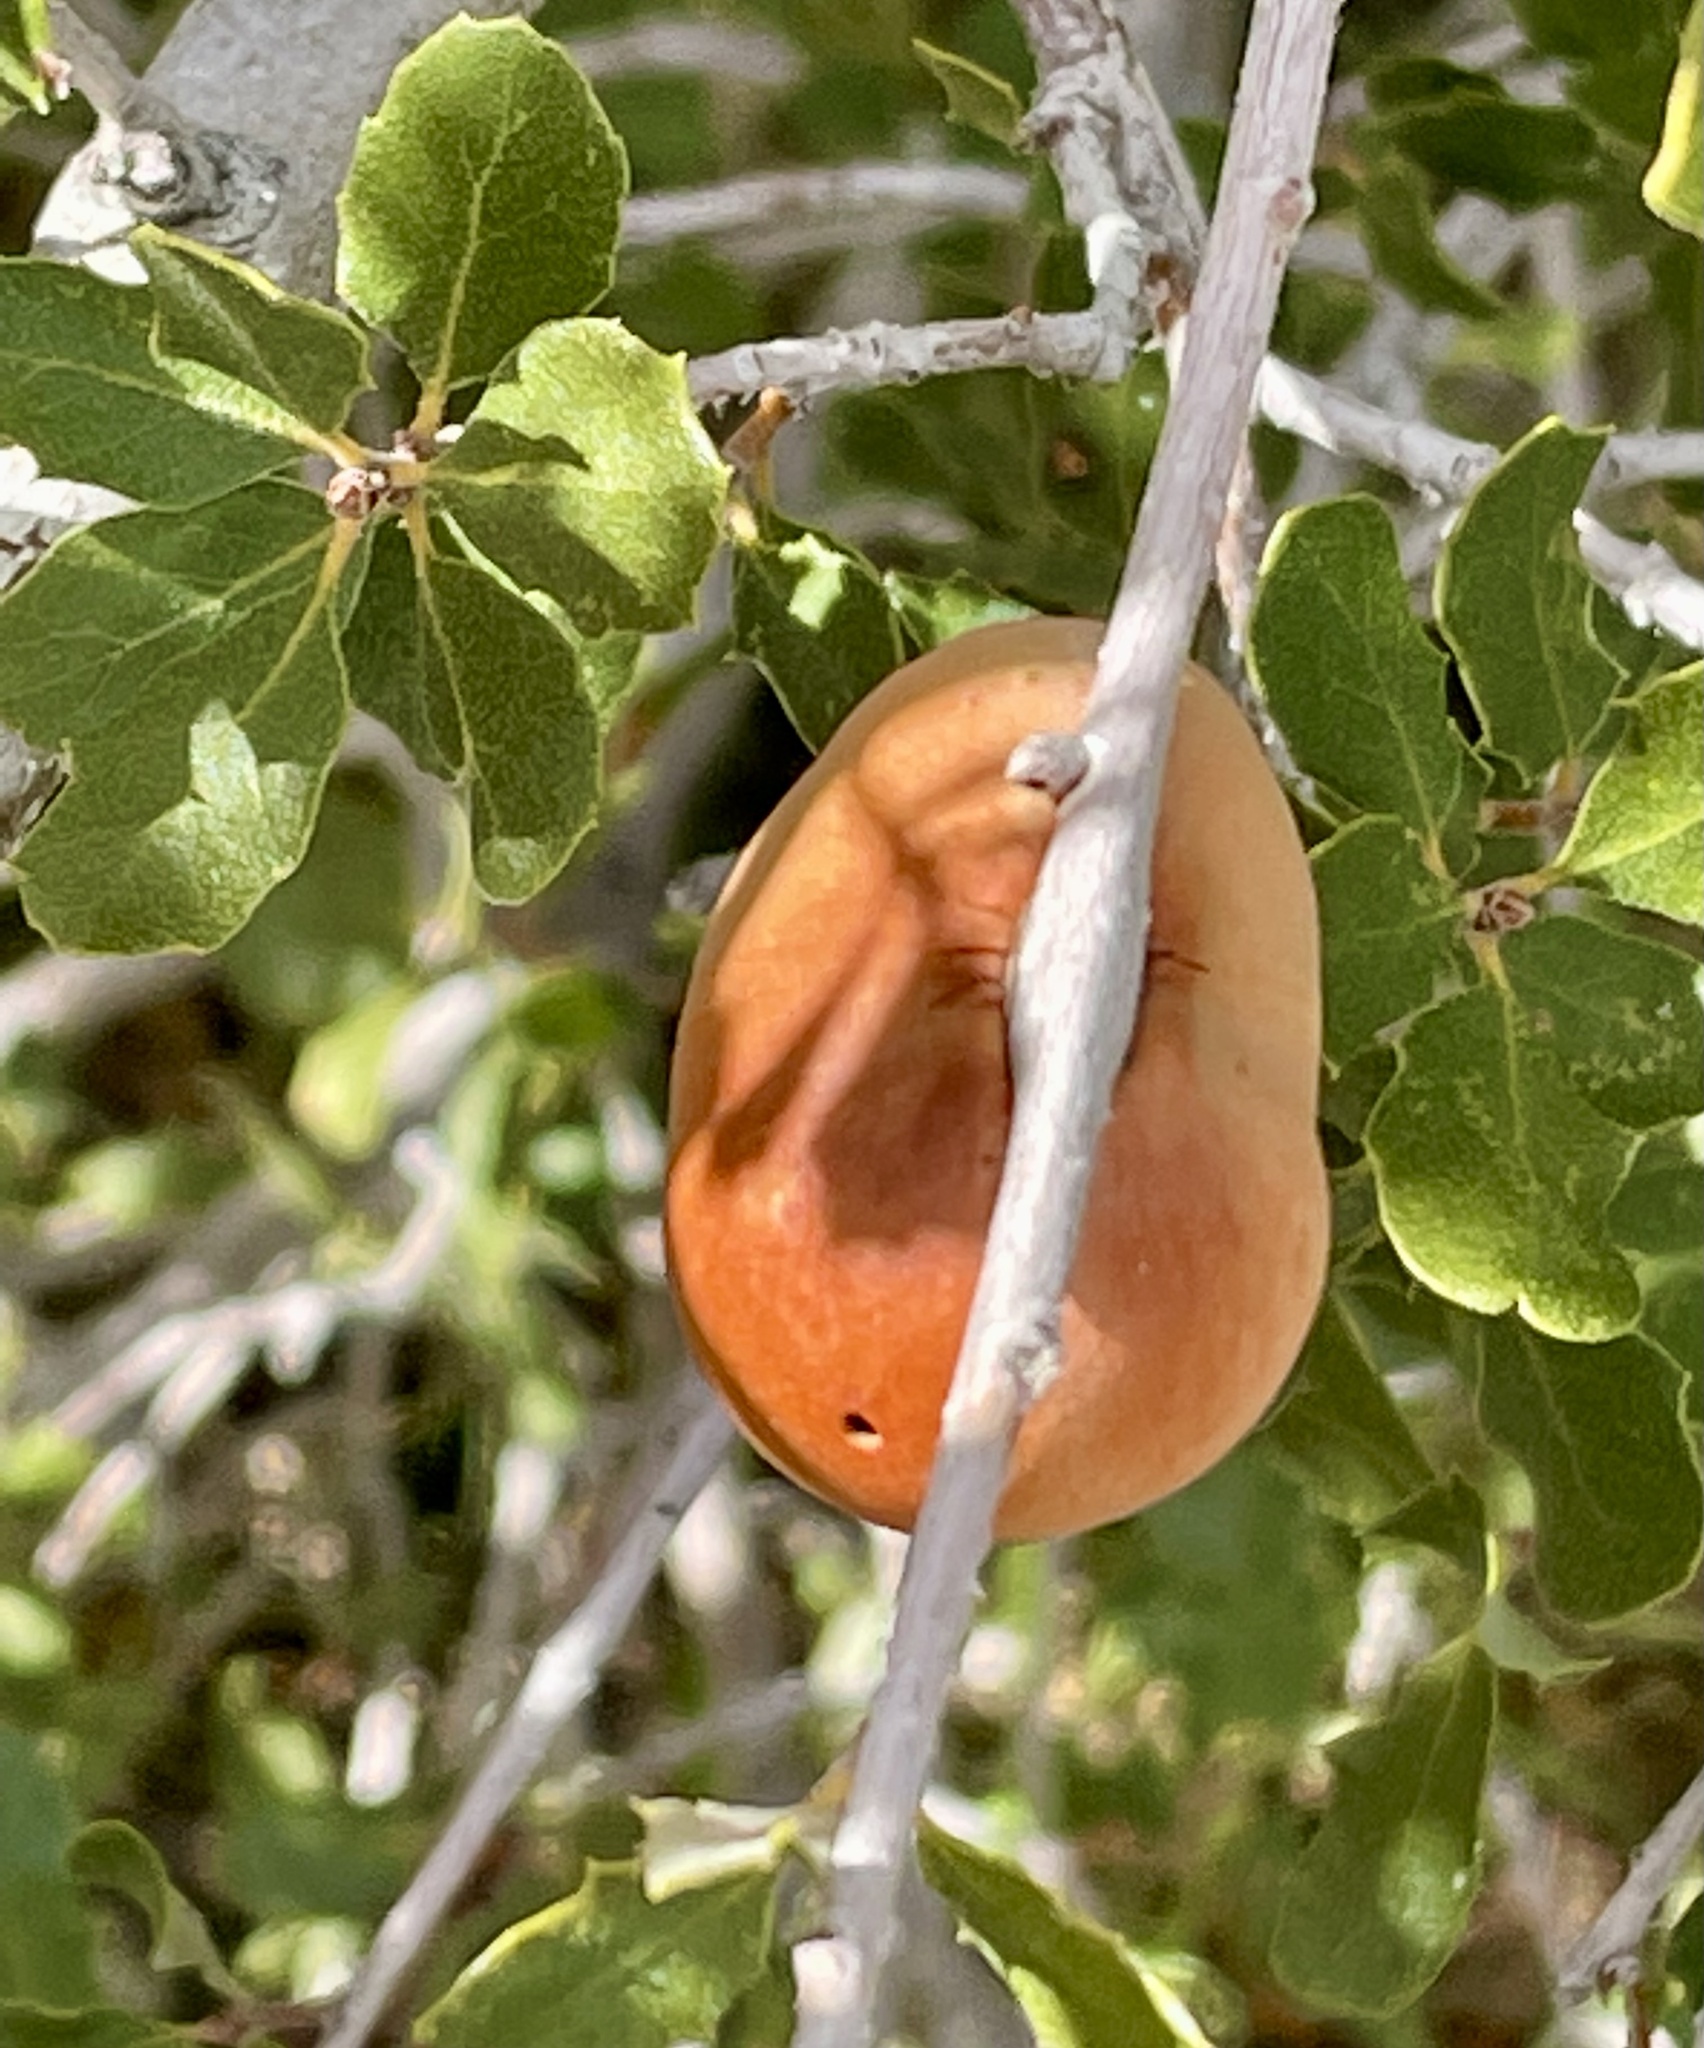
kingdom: Animalia
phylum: Arthropoda
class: Insecta
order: Hymenoptera
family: Cynipidae
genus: Andricus
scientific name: Andricus quercuscalifornicus
